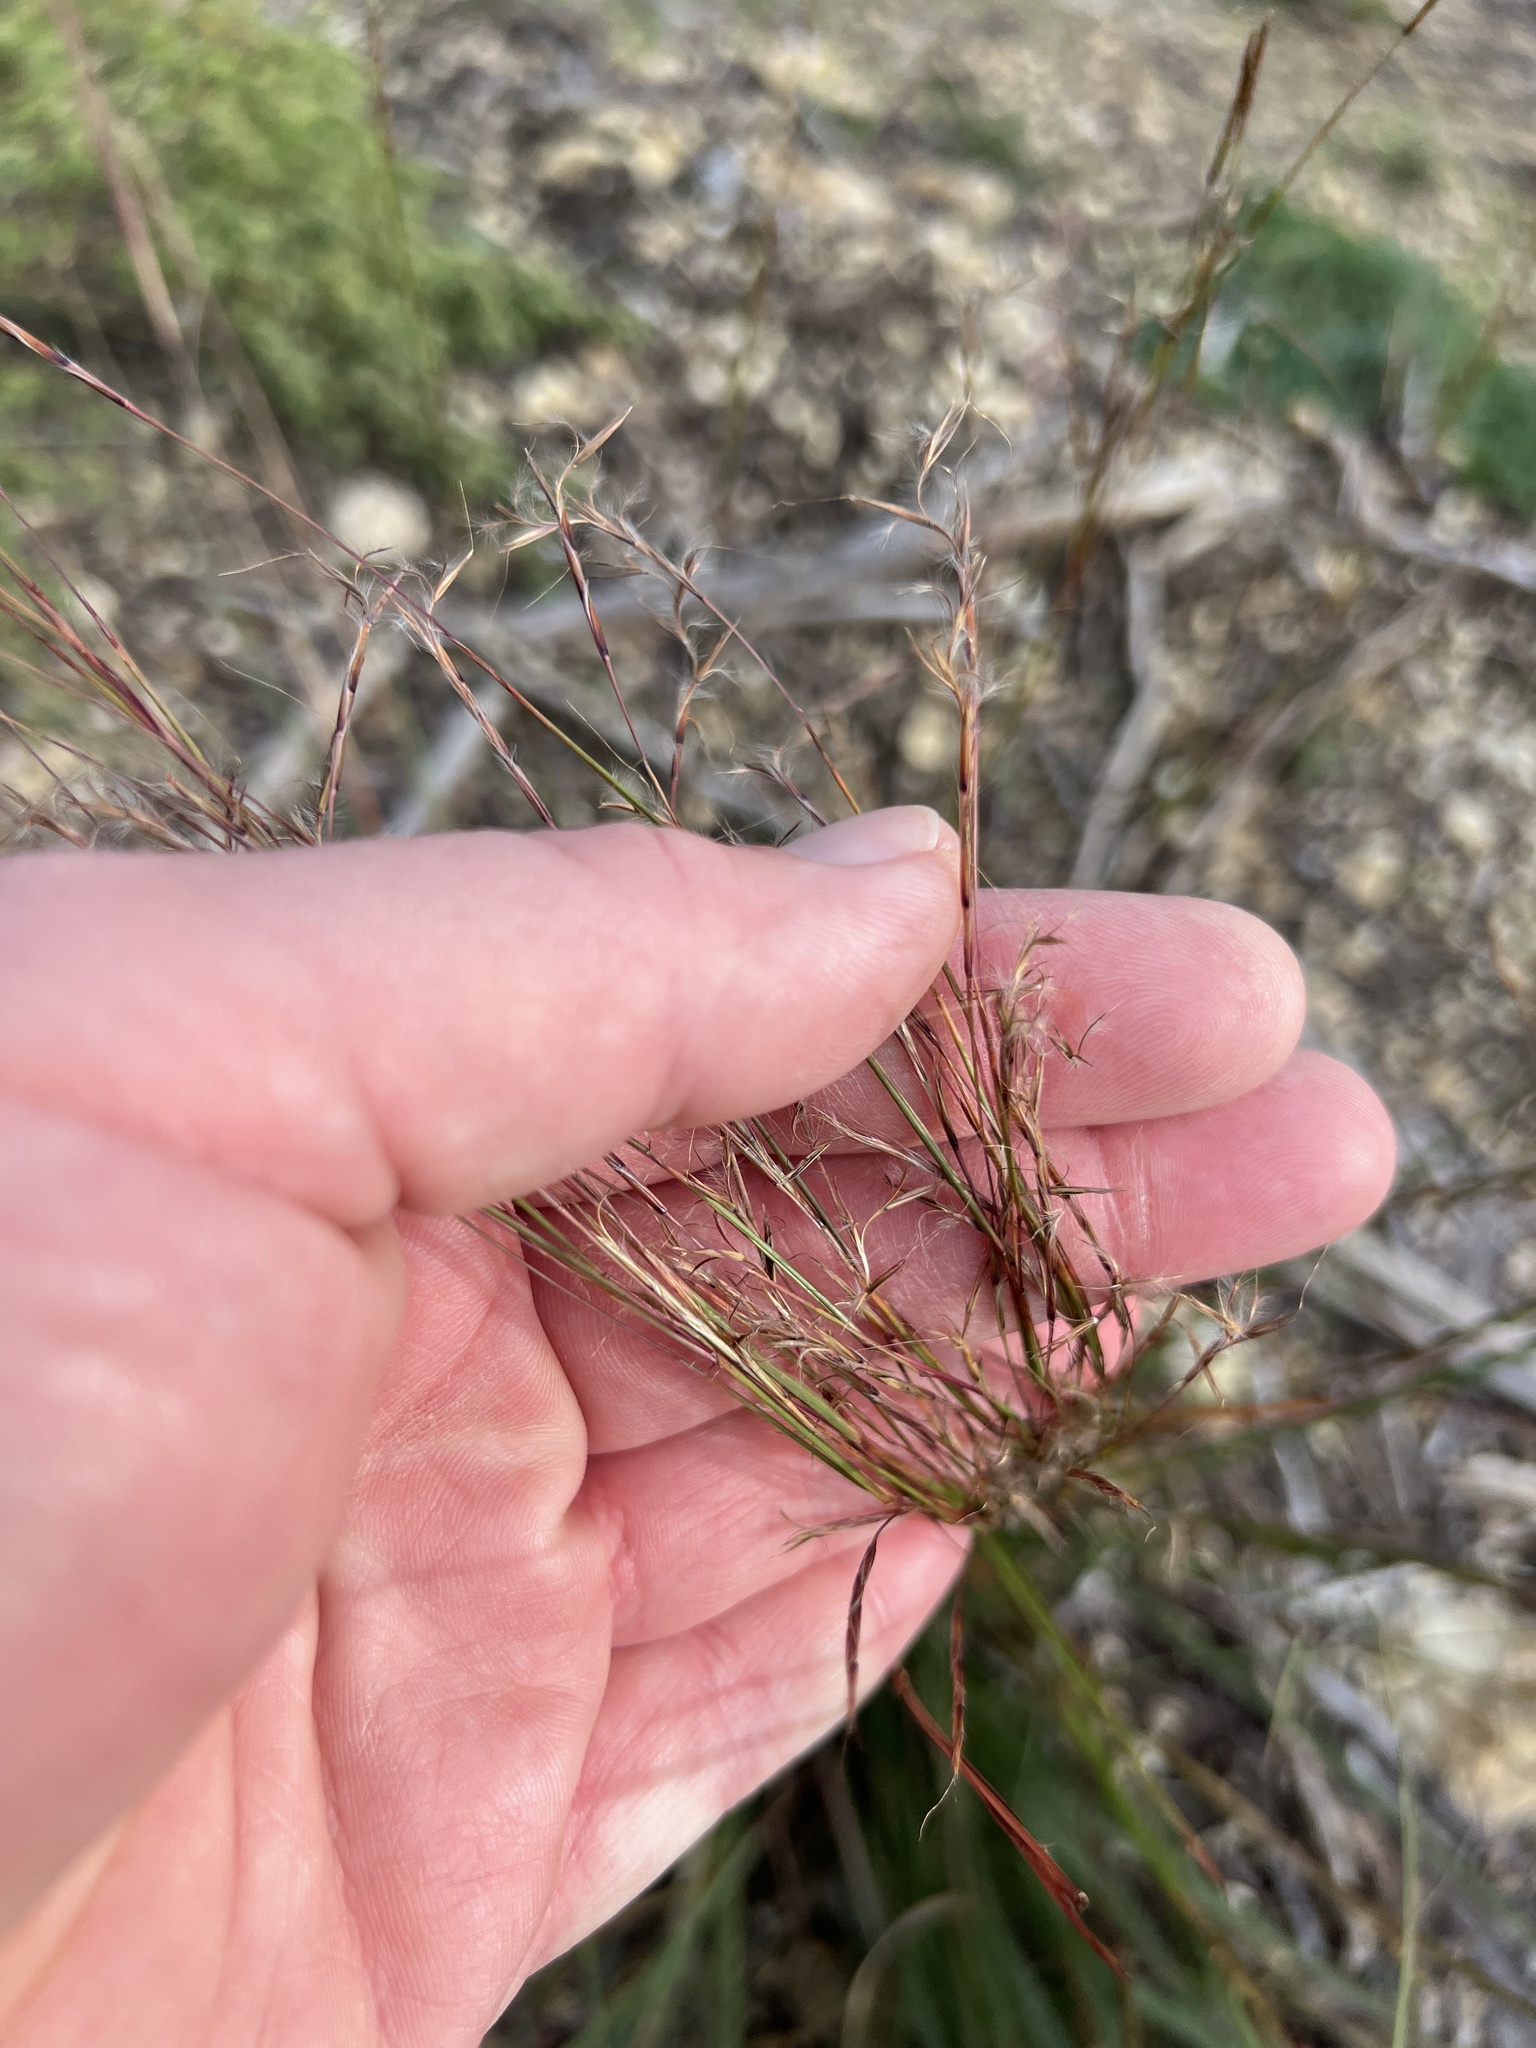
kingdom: Plantae
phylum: Tracheophyta
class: Liliopsida
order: Poales
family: Poaceae
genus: Schizachyrium
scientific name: Schizachyrium scoparium
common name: Little bluestem
